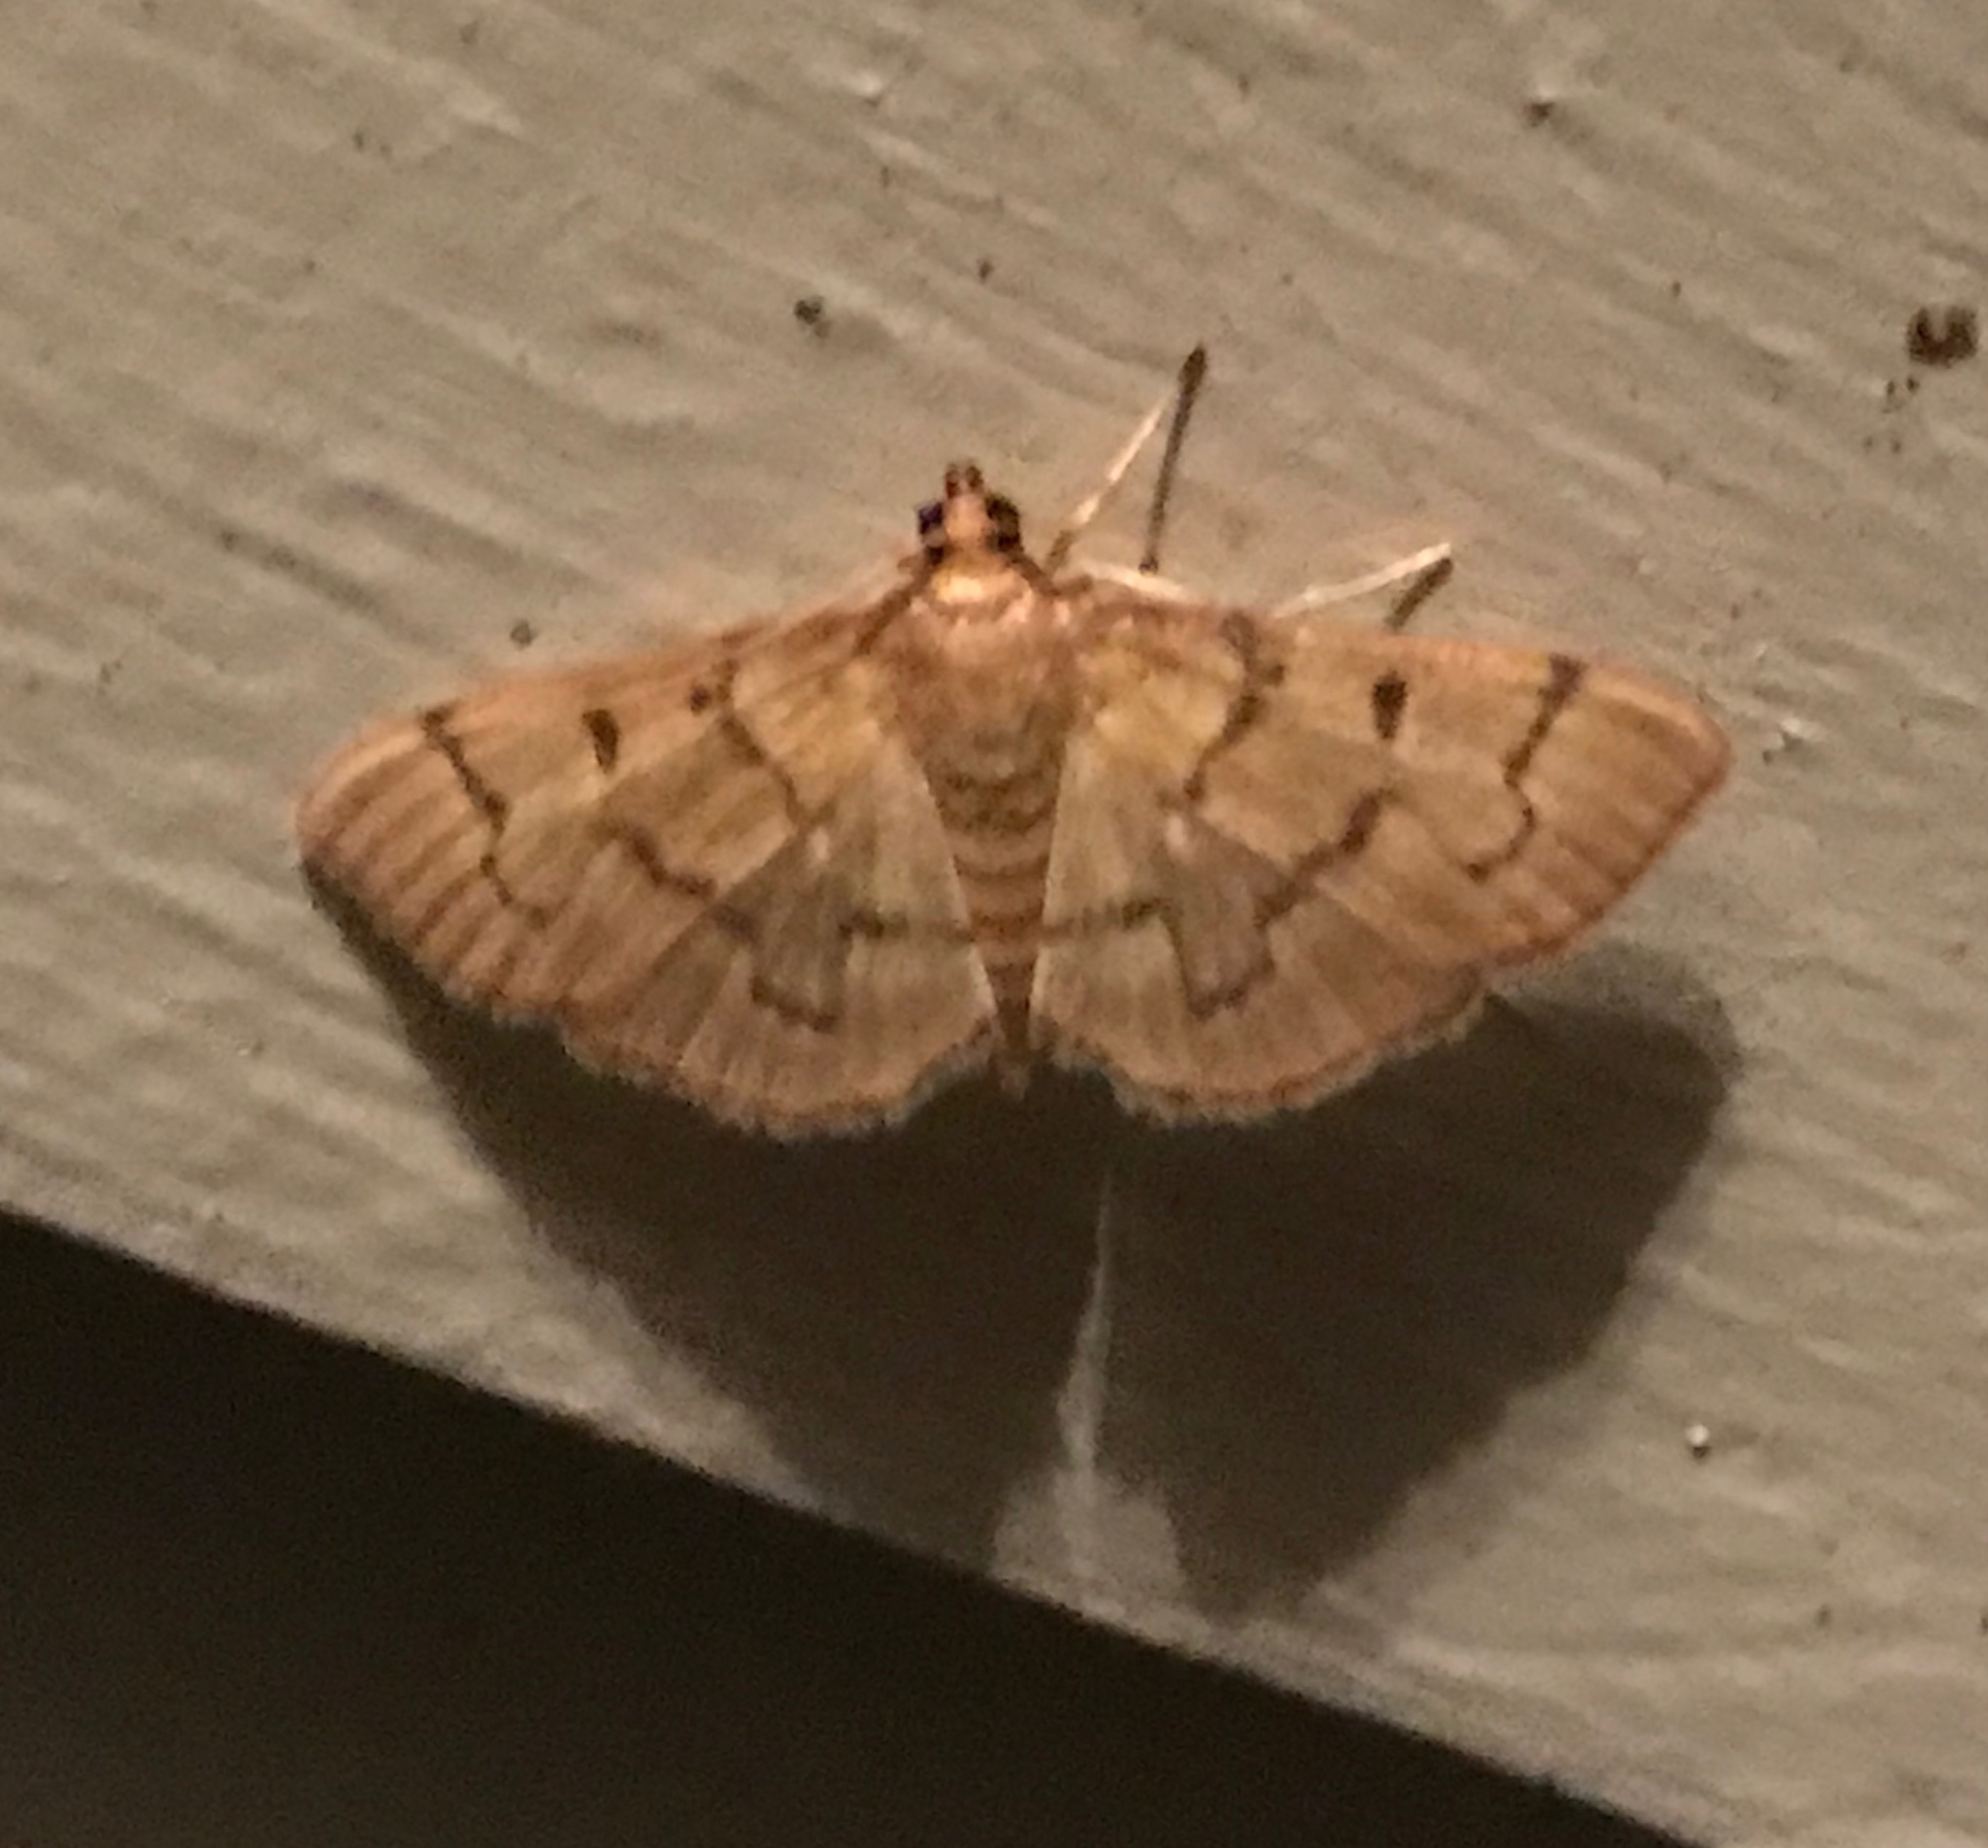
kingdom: Animalia
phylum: Arthropoda
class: Insecta
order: Lepidoptera
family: Crambidae
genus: Herpetogramma
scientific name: Herpetogramma theseusalis
